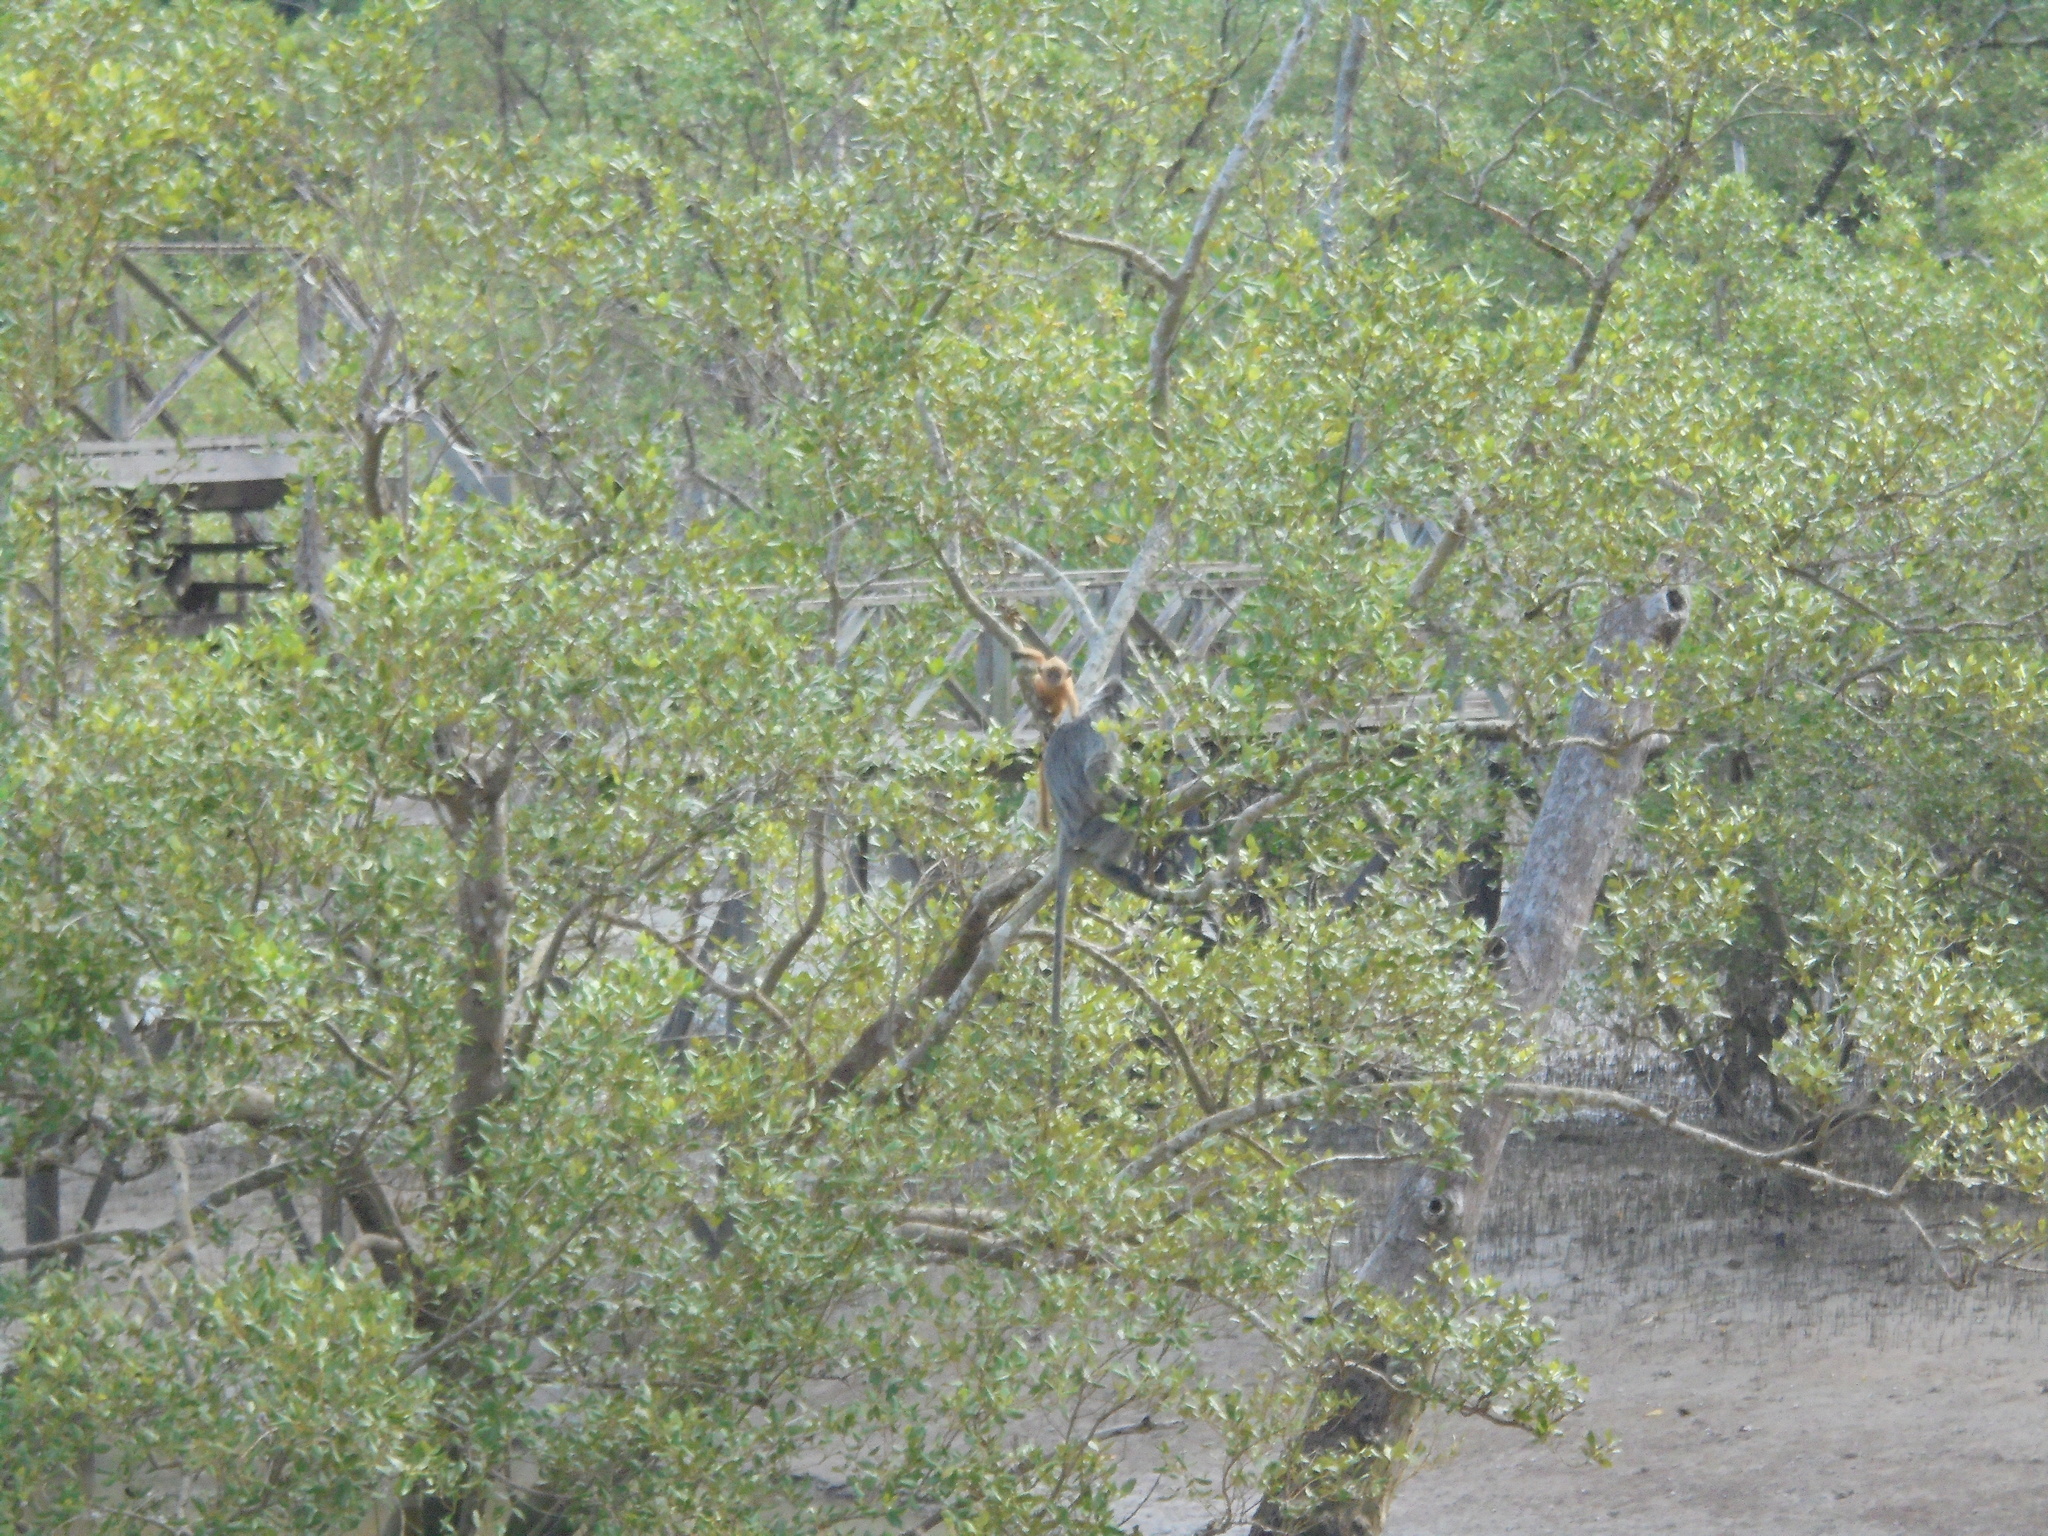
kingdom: Animalia
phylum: Chordata
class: Mammalia
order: Primates
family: Cercopithecidae
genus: Trachypithecus
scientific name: Trachypithecus cristatus
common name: Silvery lutung
